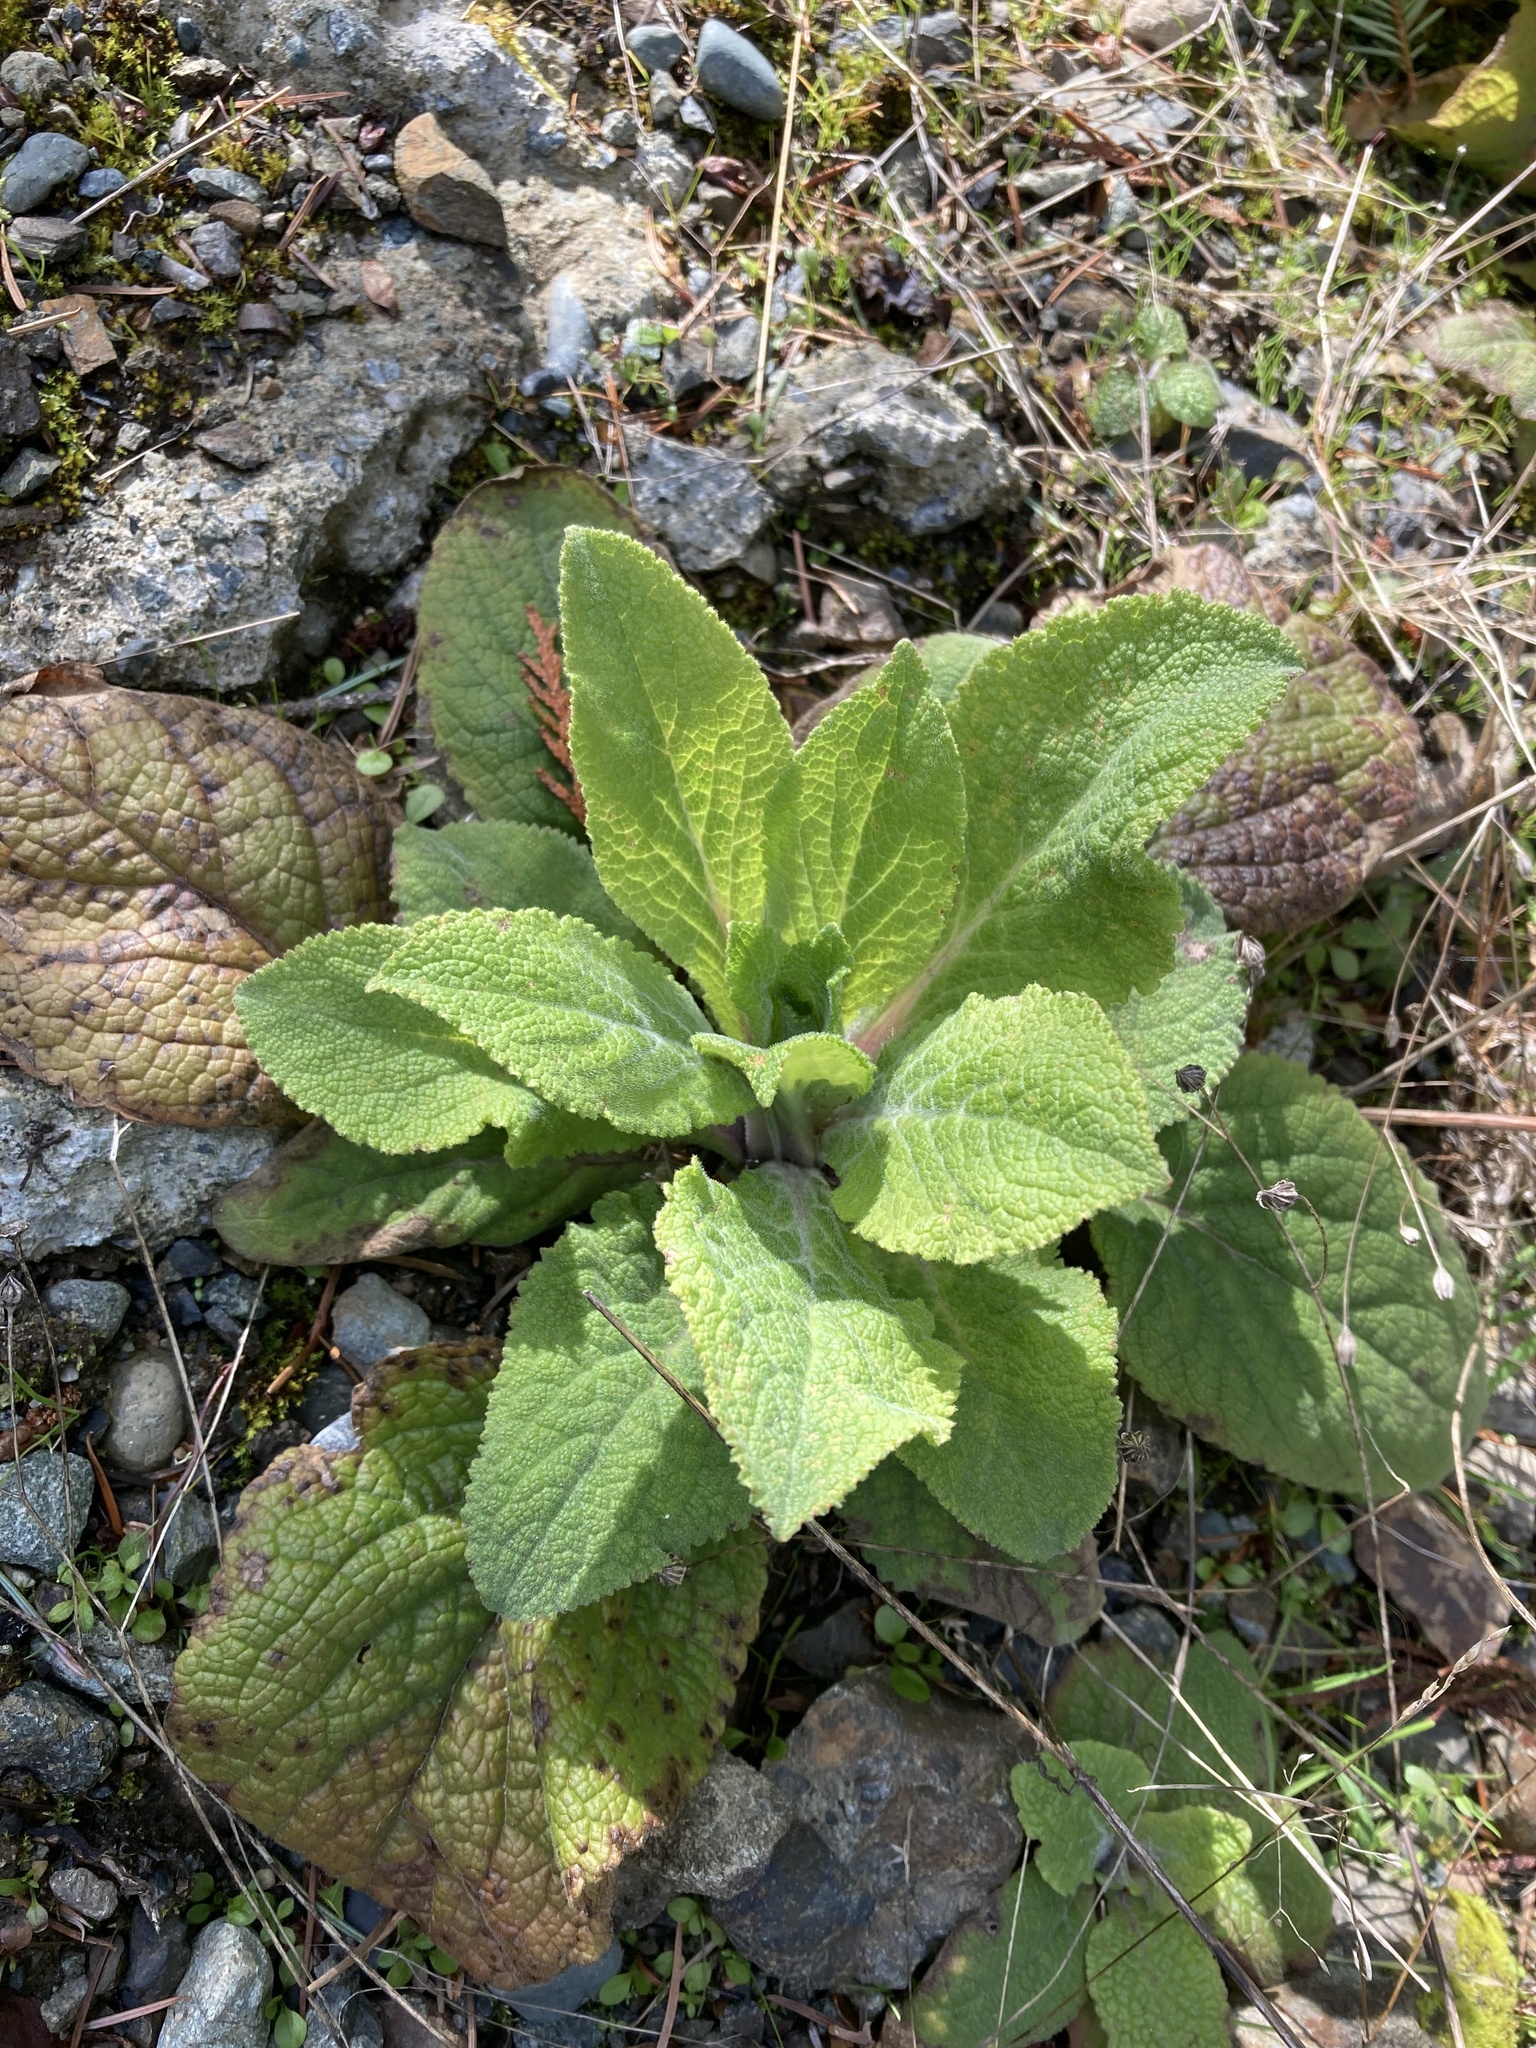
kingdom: Plantae
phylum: Tracheophyta
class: Magnoliopsida
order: Lamiales
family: Plantaginaceae
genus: Digitalis
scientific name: Digitalis purpurea
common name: Foxglove
